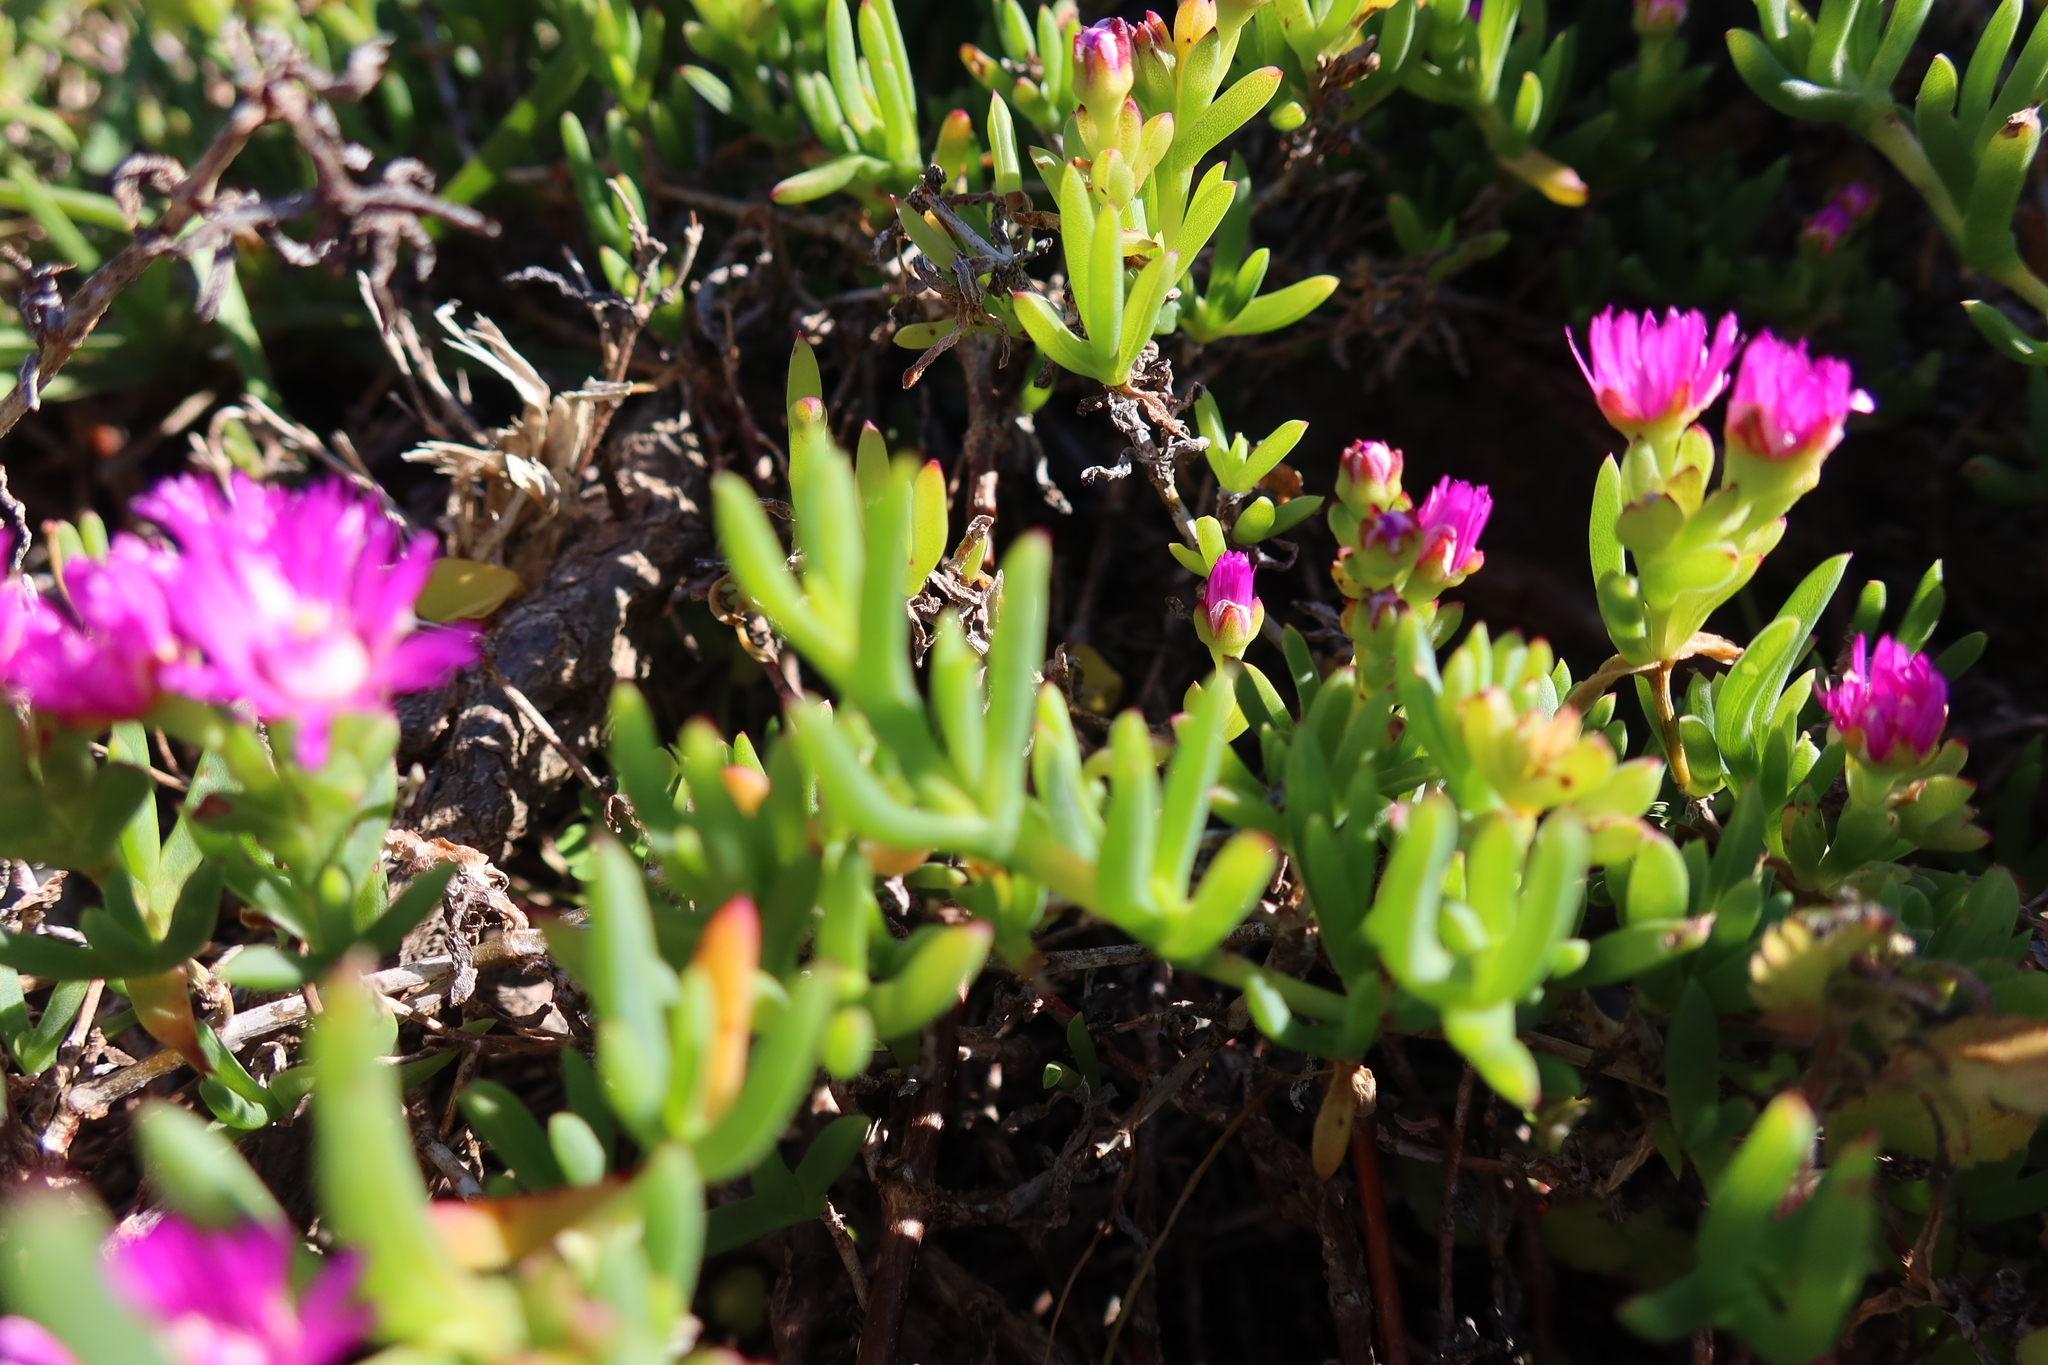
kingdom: Plantae
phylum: Tracheophyta
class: Magnoliopsida
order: Caryophyllales
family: Aizoaceae
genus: Ruschia
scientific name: Ruschia macowanii
